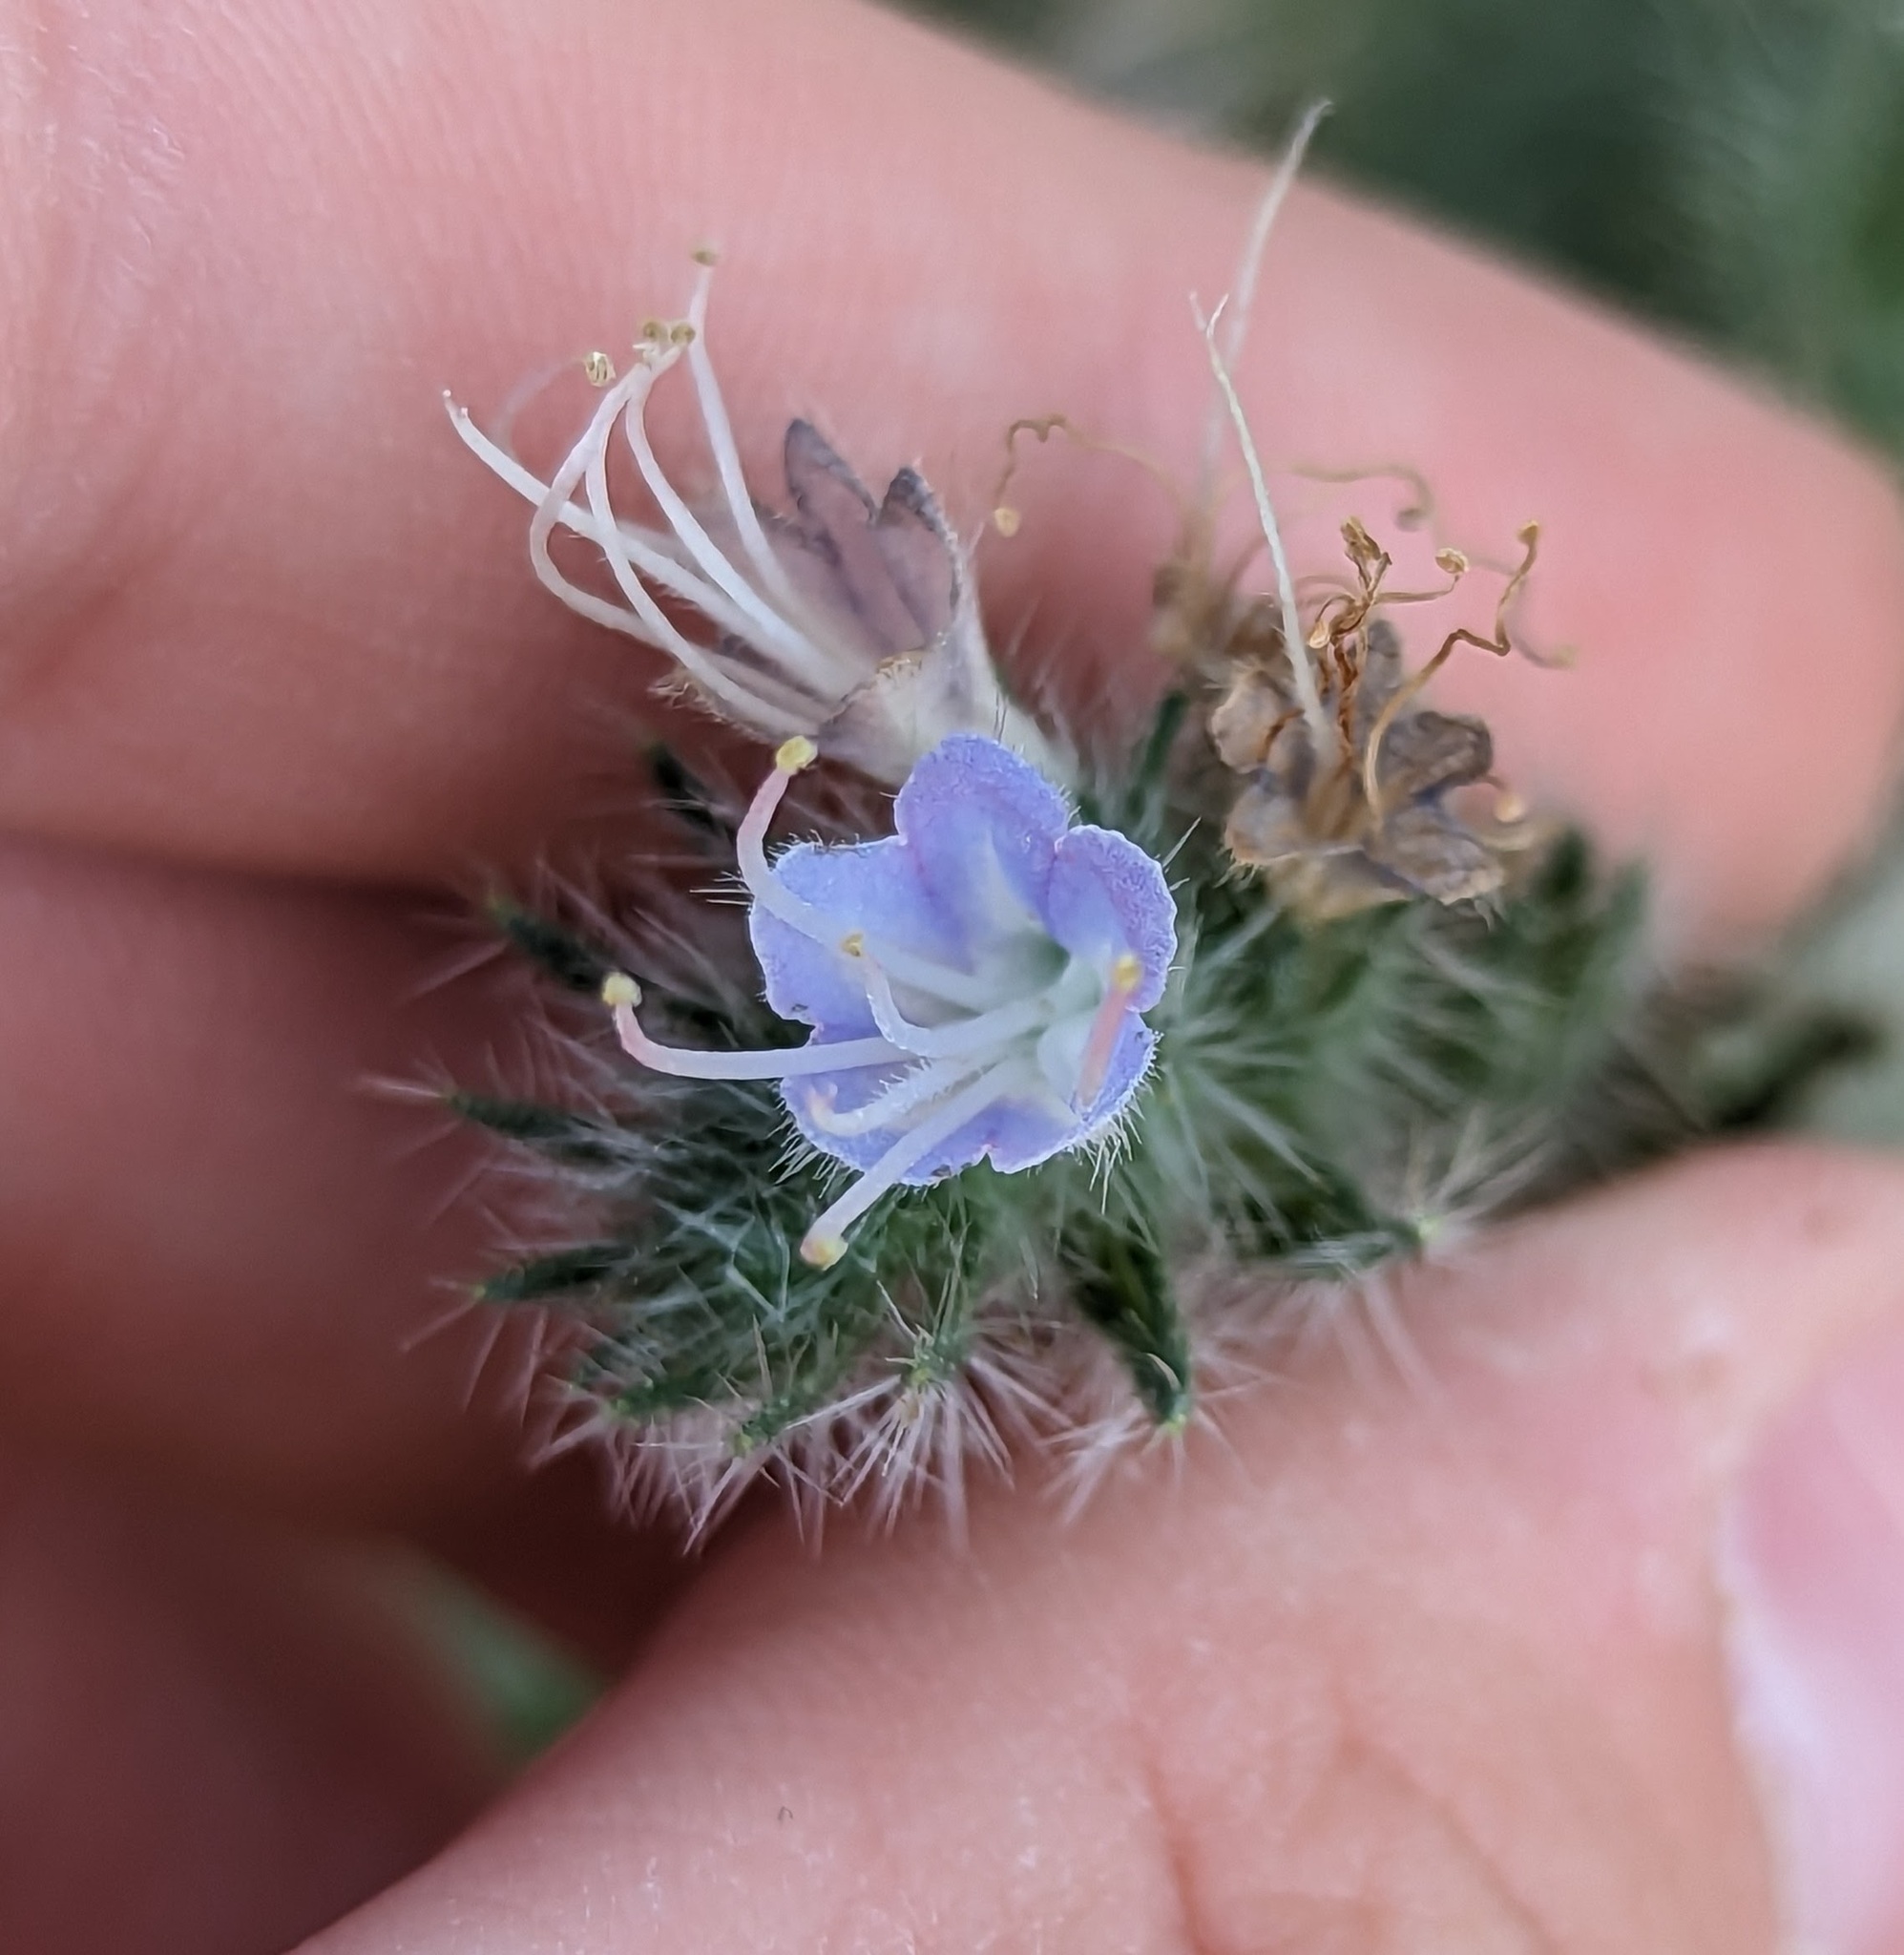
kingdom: Plantae
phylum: Tracheophyta
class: Magnoliopsida
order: Boraginales
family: Boraginaceae
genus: Echium
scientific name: Echium italicum
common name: Italian viper's bugloss
